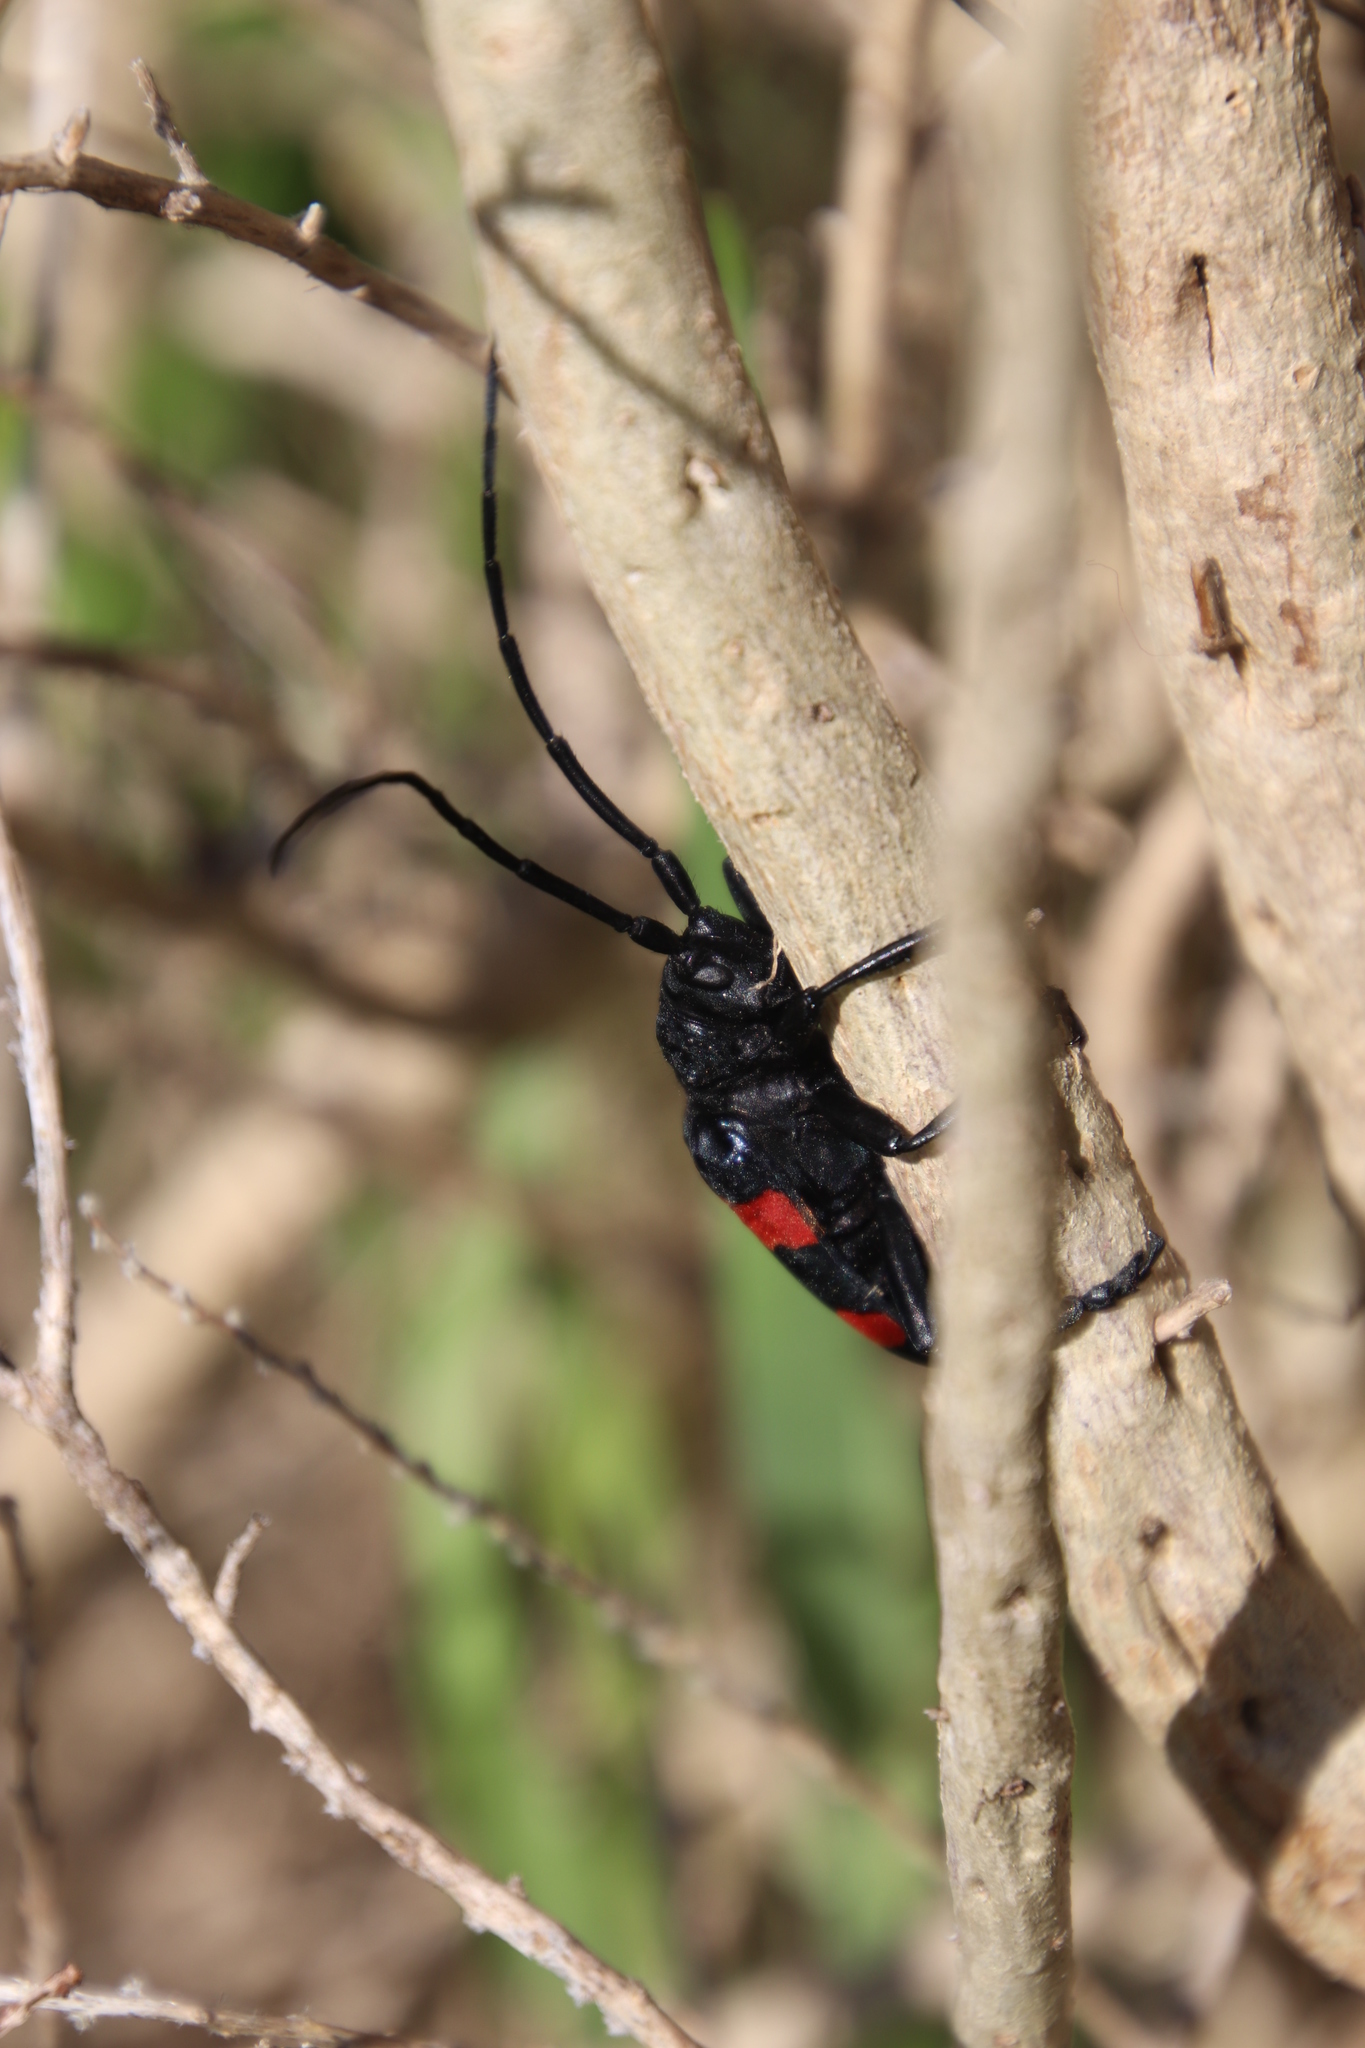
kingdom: Animalia
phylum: Arthropoda
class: Insecta
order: Coleoptera
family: Cerambycidae
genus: Ceroplesis
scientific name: Ceroplesis aethiops
